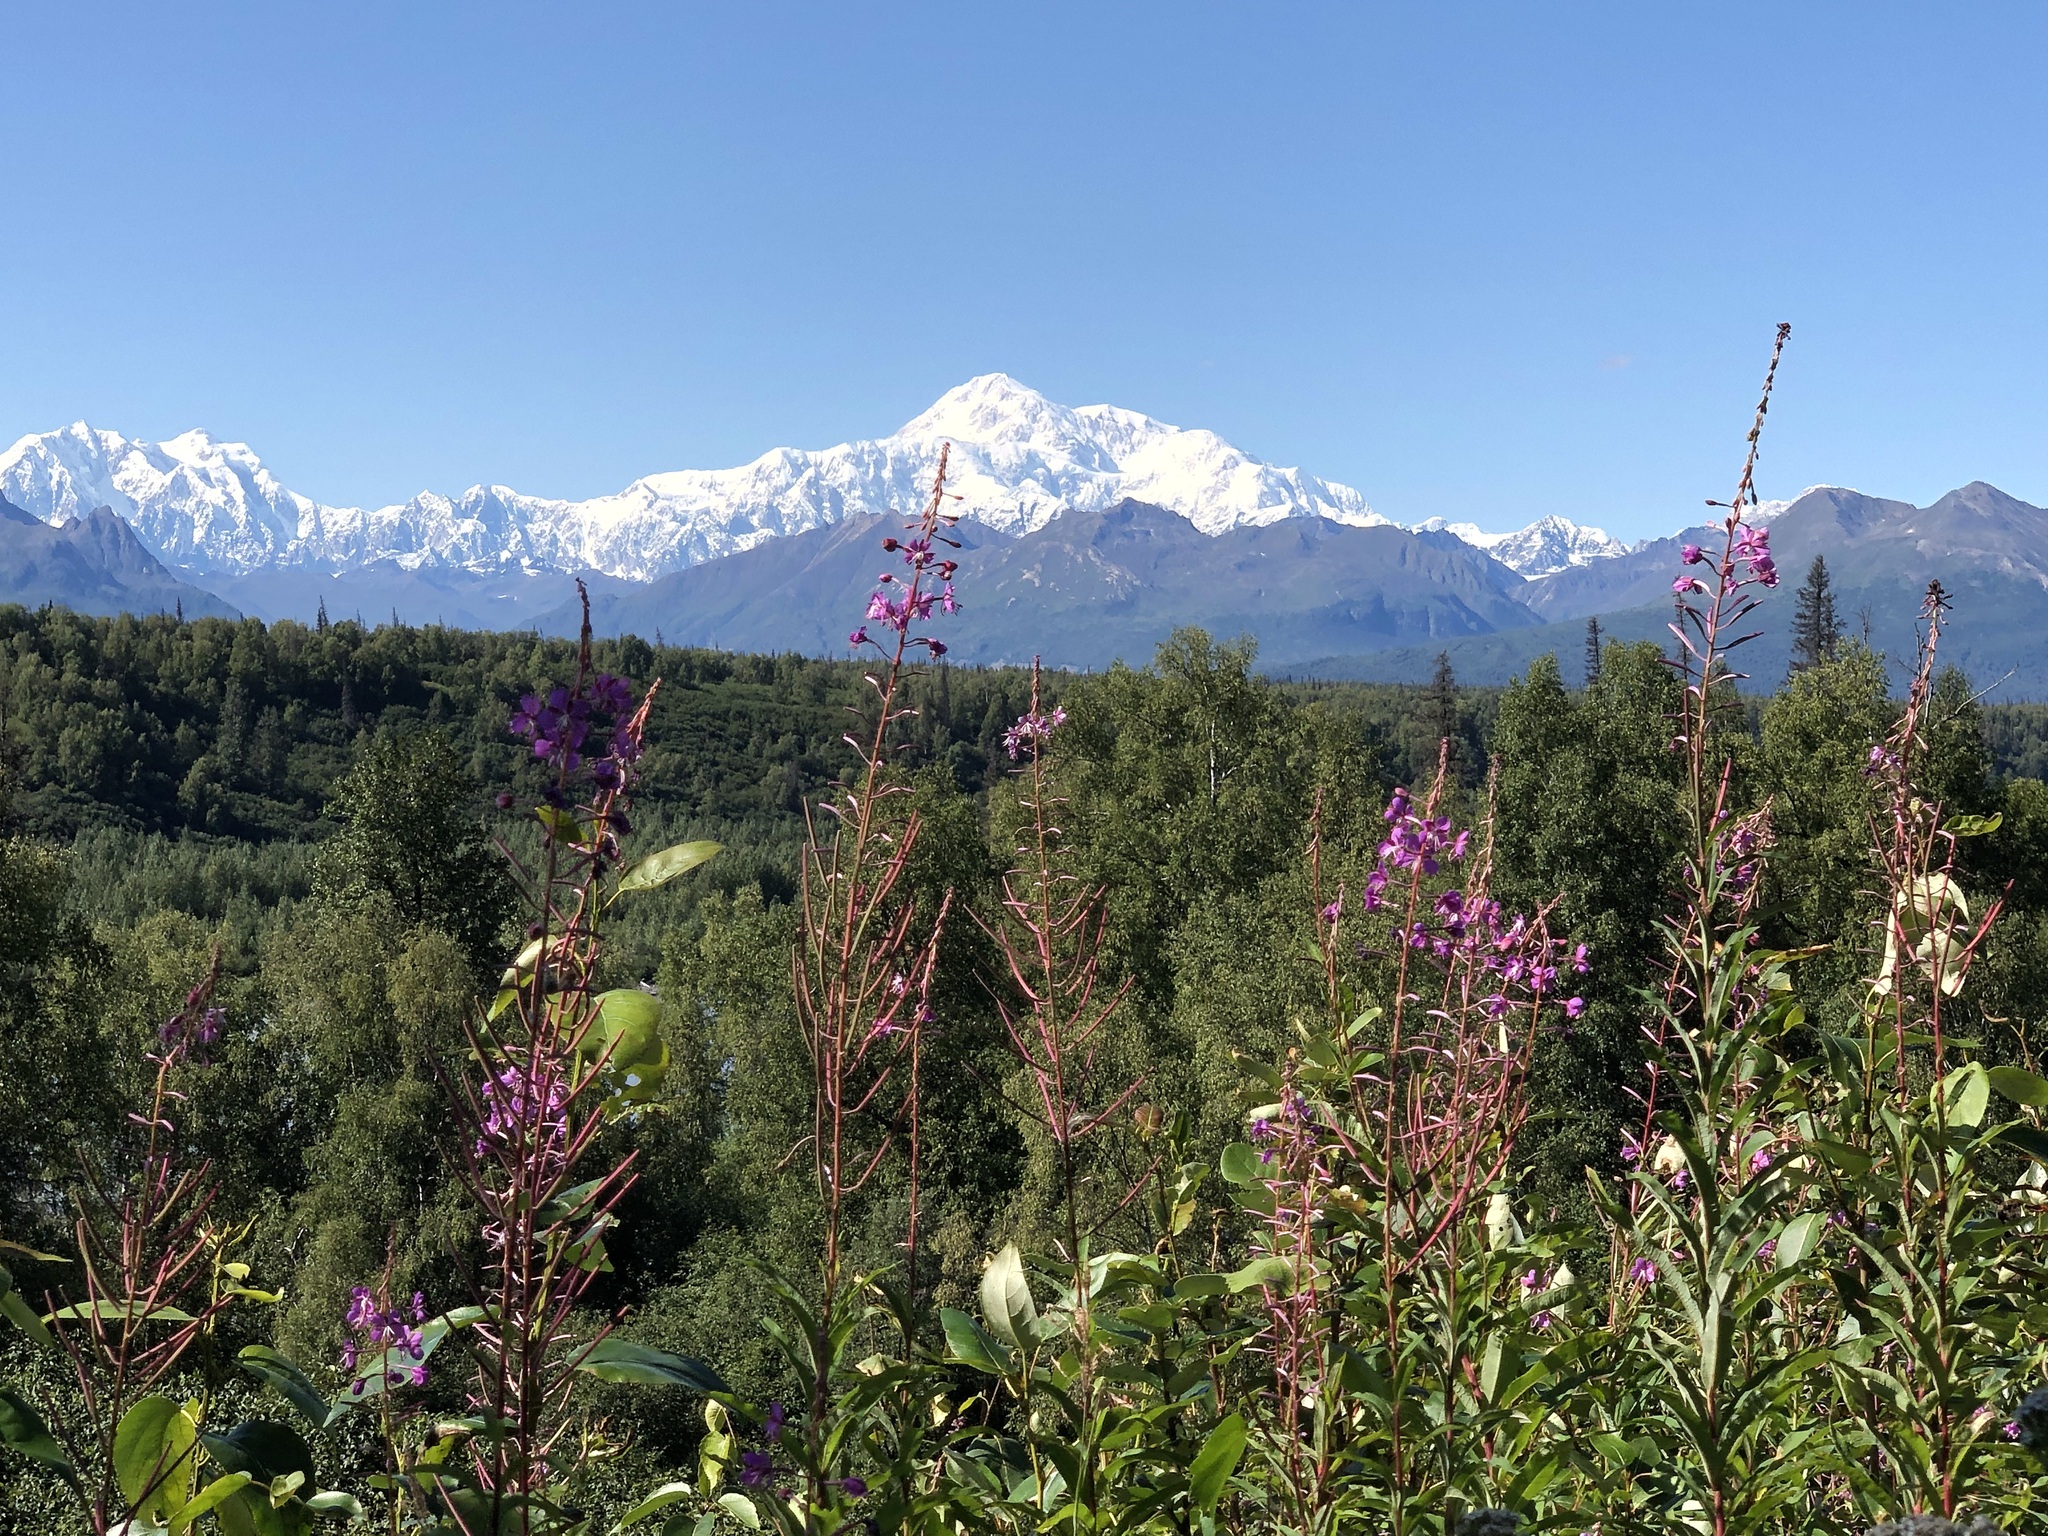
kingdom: Plantae
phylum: Tracheophyta
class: Magnoliopsida
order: Myrtales
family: Onagraceae
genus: Chamaenerion
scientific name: Chamaenerion angustifolium
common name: Fireweed
